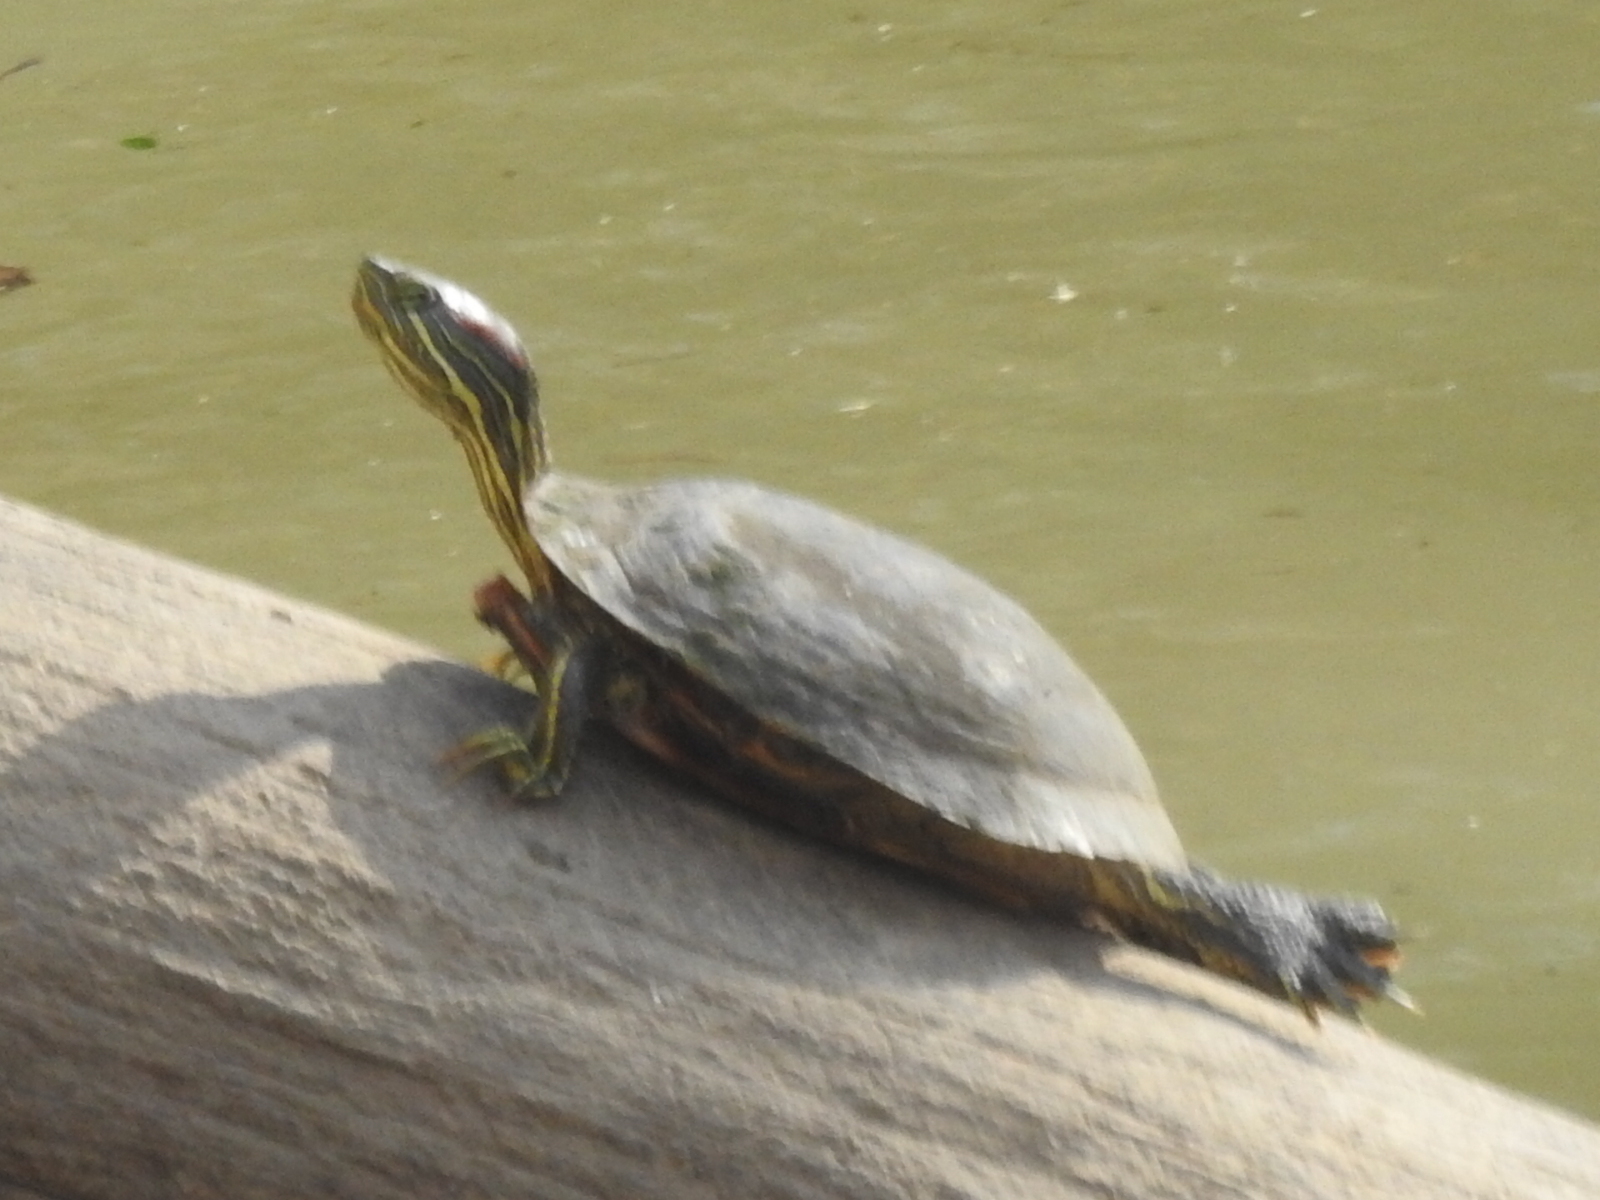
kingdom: Animalia
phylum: Chordata
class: Testudines
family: Emydidae
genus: Trachemys
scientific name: Trachemys scripta
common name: Slider
